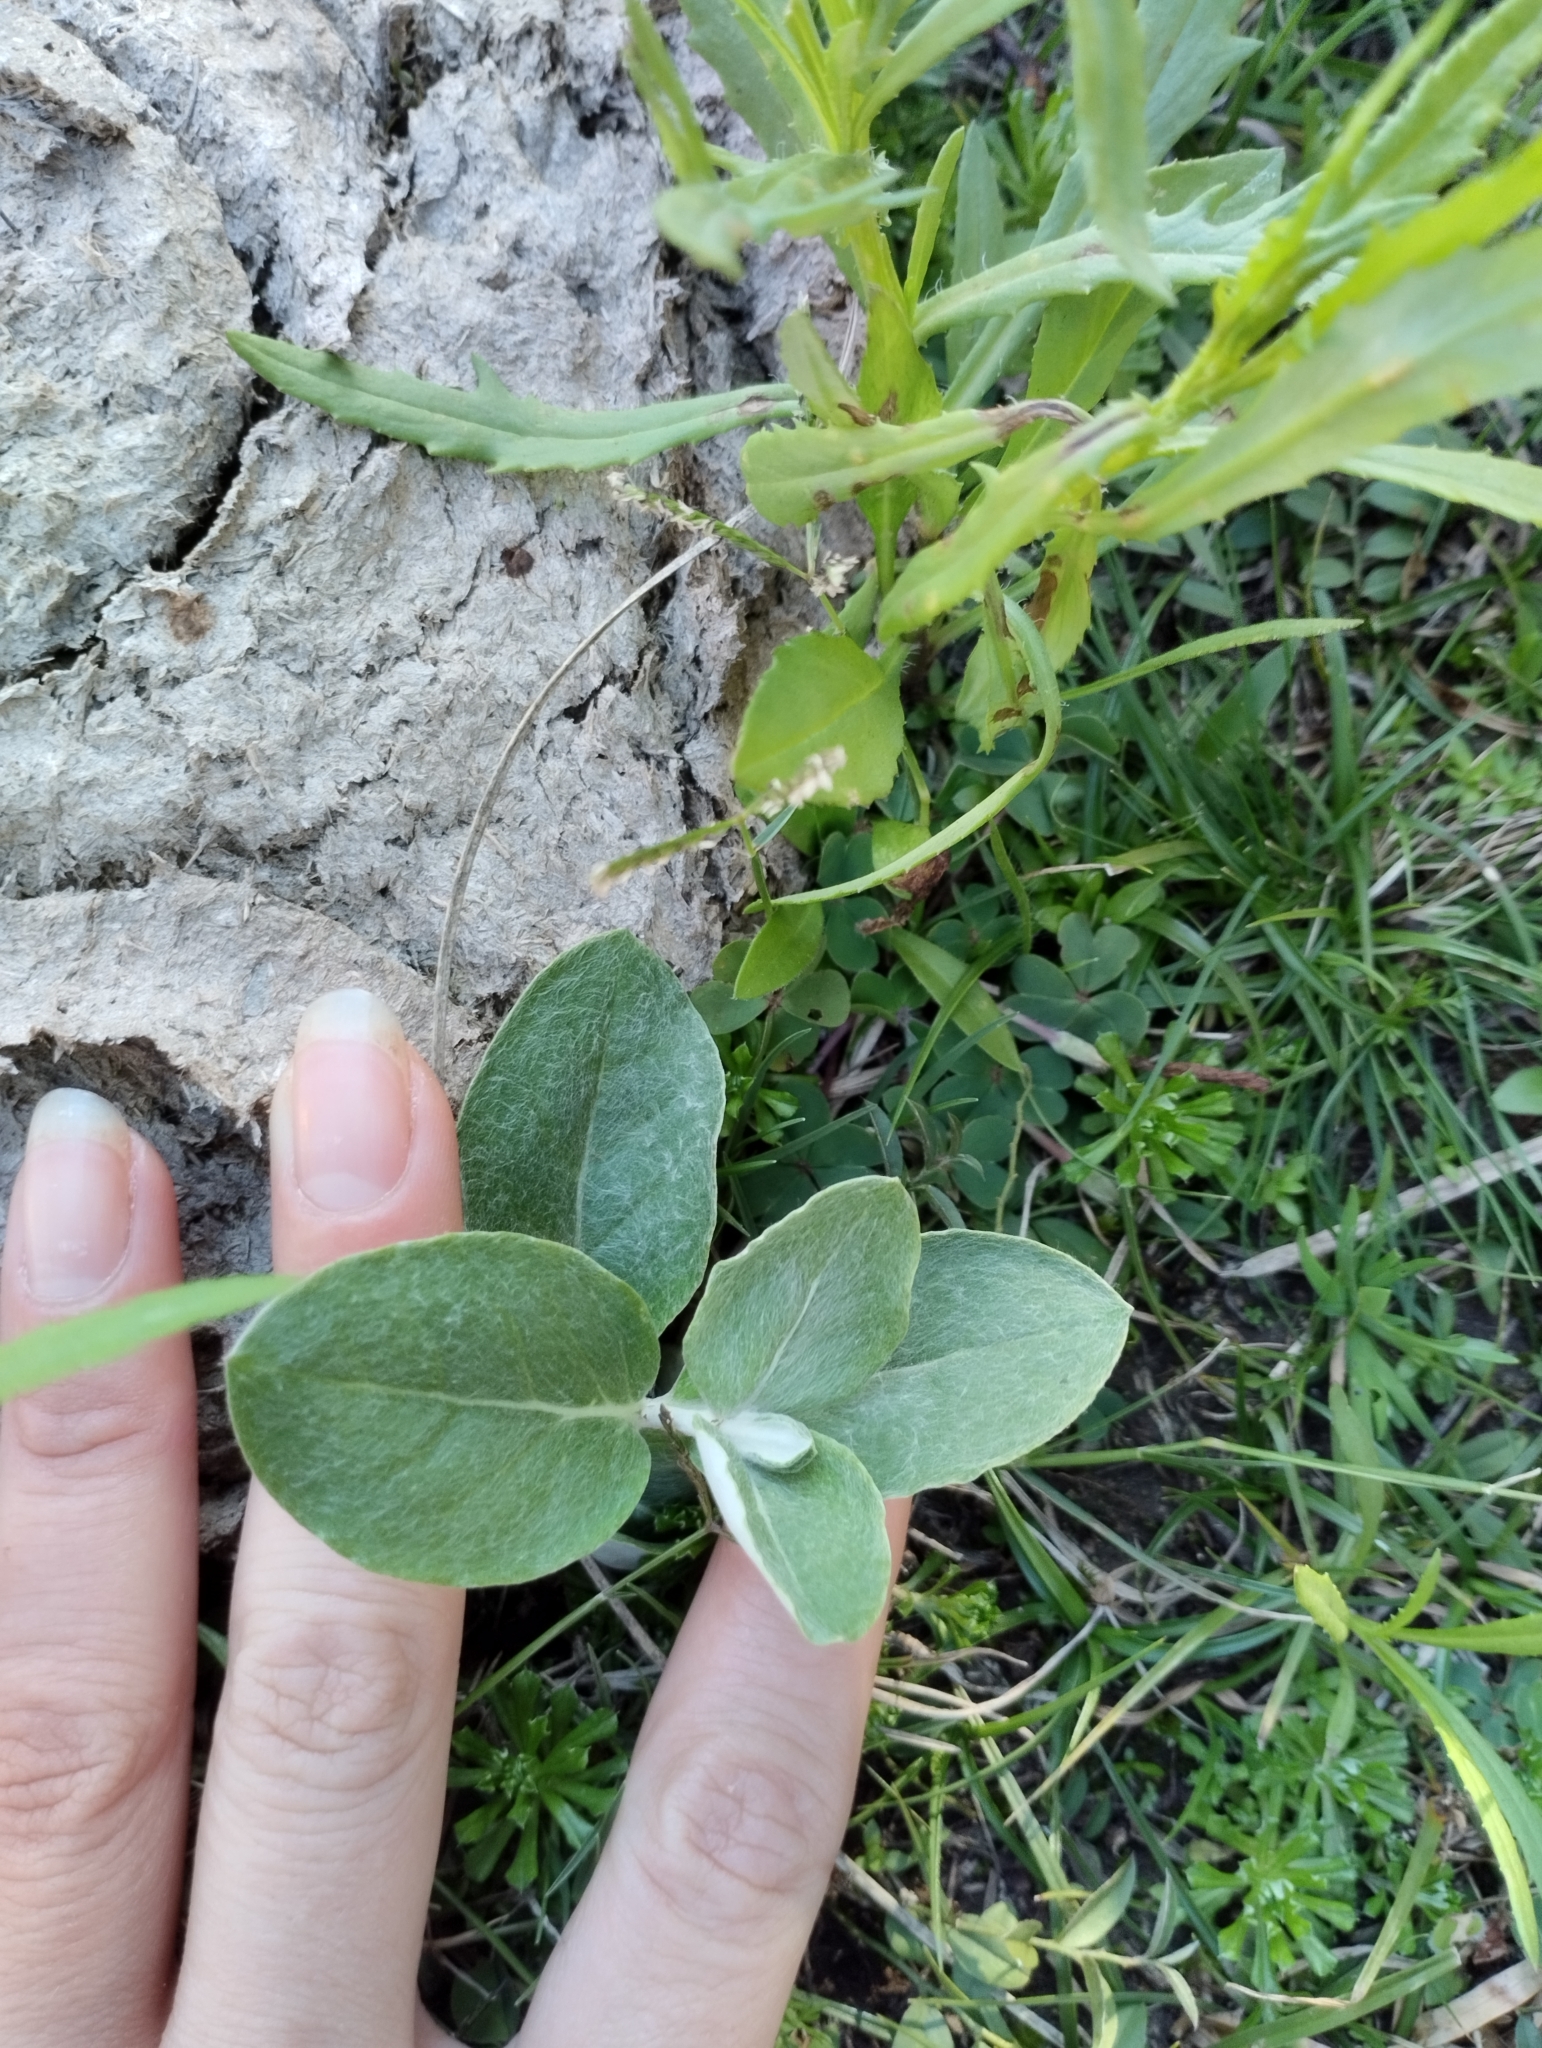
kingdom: Plantae
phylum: Tracheophyta
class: Magnoliopsida
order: Caryophyllales
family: Amaranthaceae
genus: Pfaffia
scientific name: Pfaffia gnaphalioides
